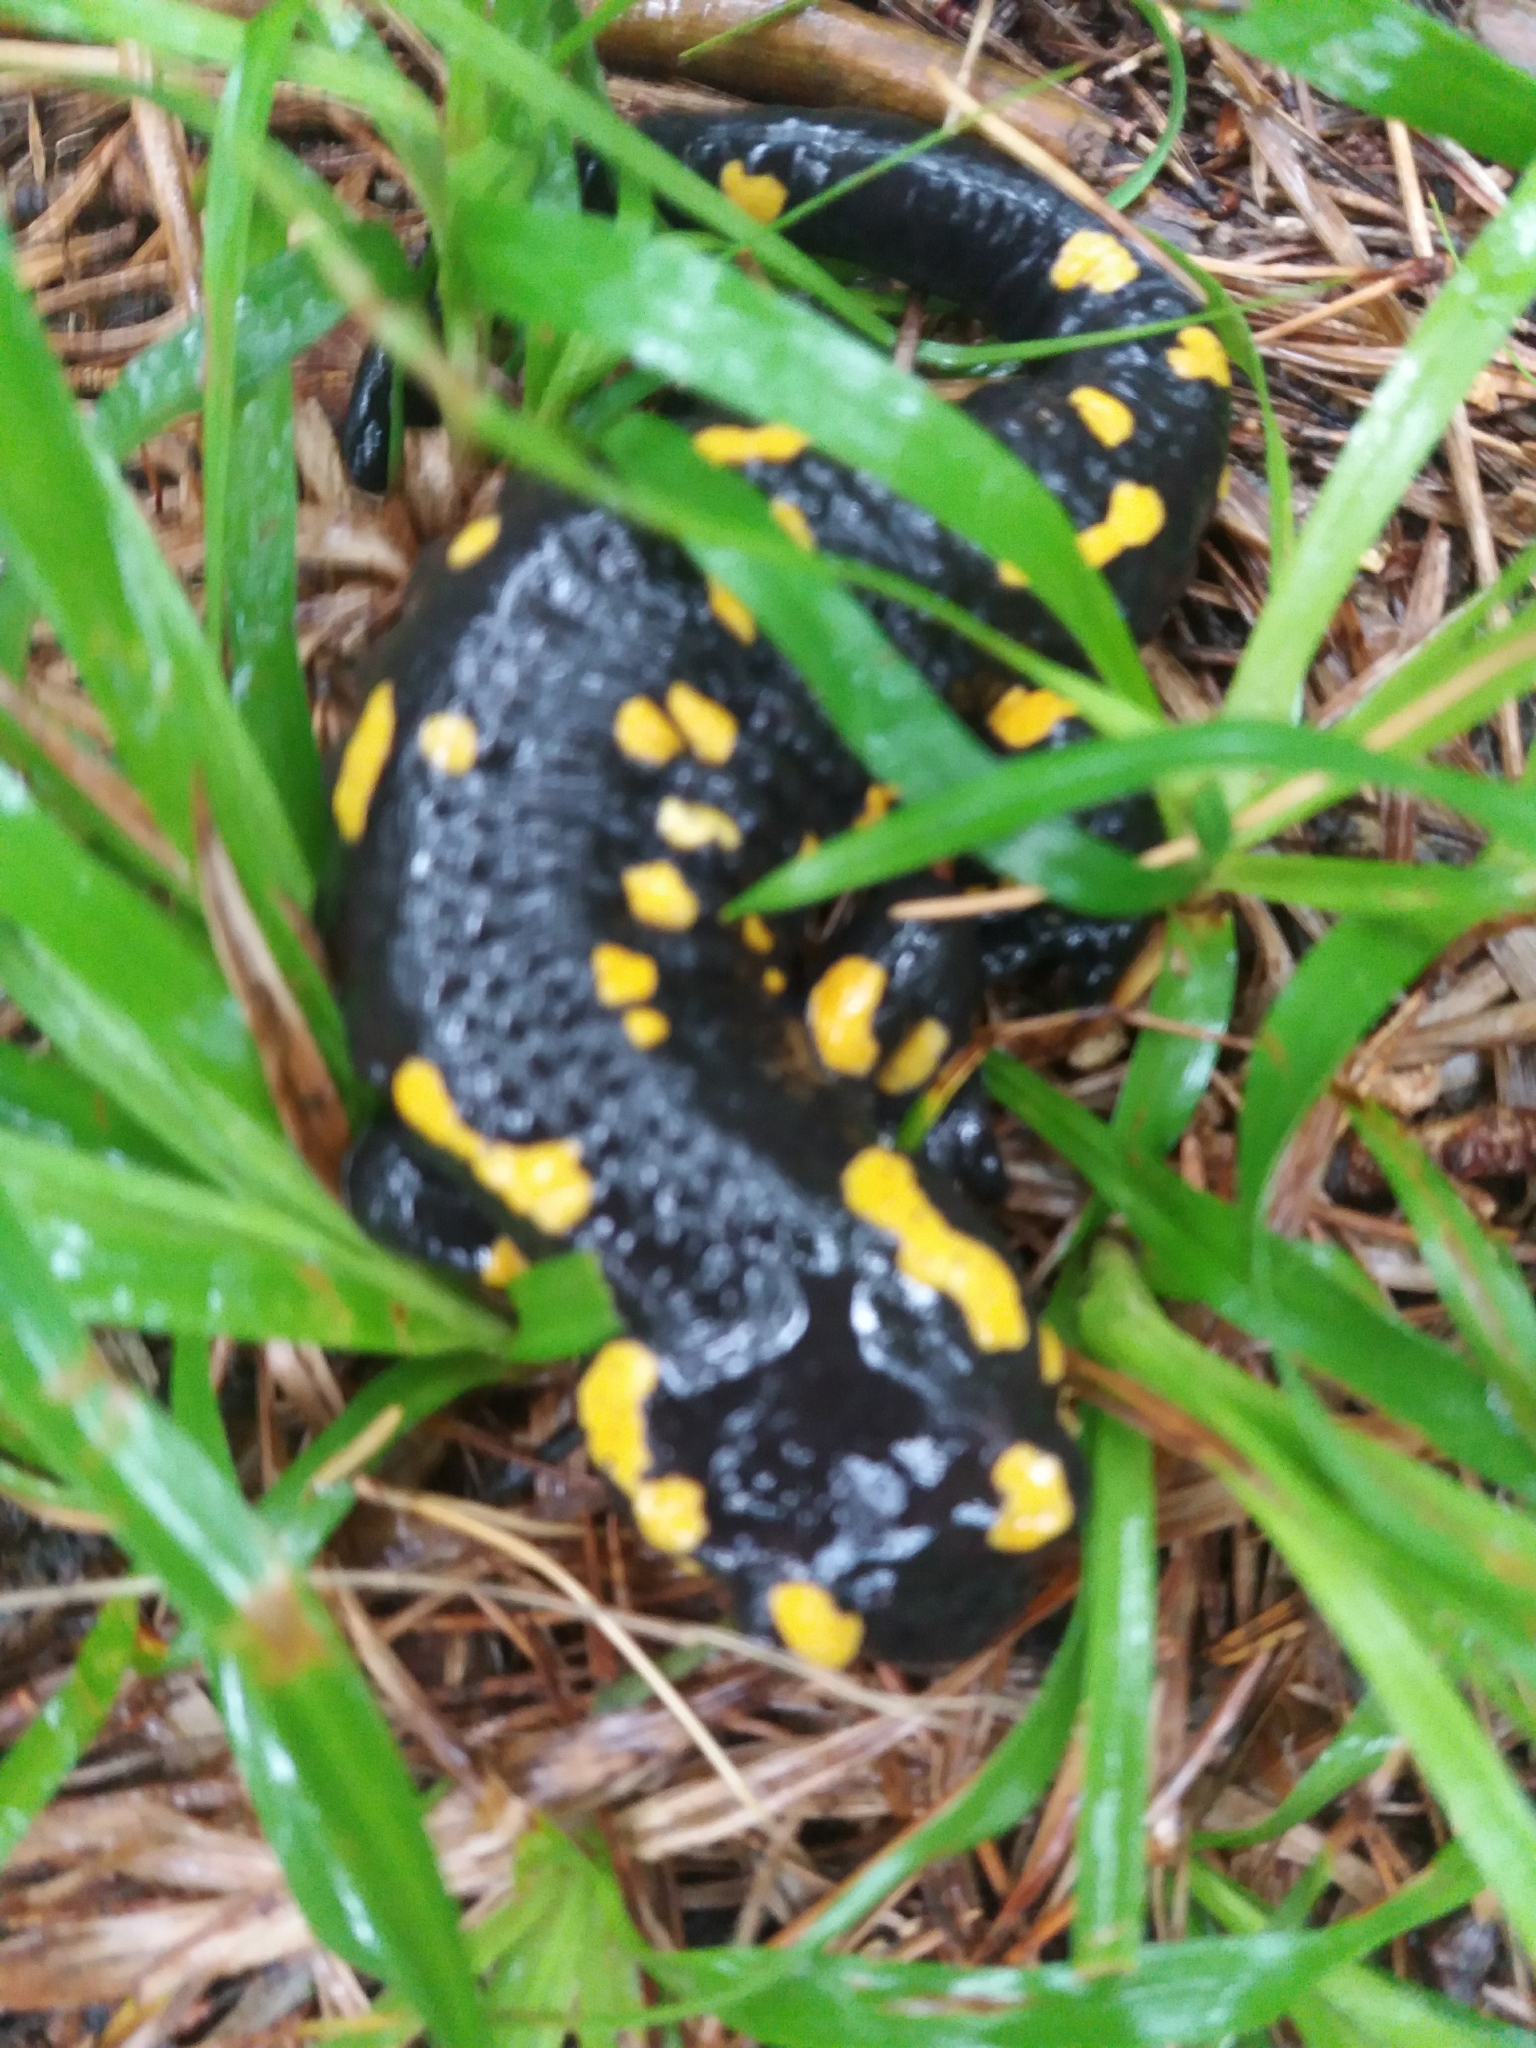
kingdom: Animalia
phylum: Chordata
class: Amphibia
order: Caudata
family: Salamandridae
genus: Salamandra
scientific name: Salamandra salamandra
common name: Fire salamander
